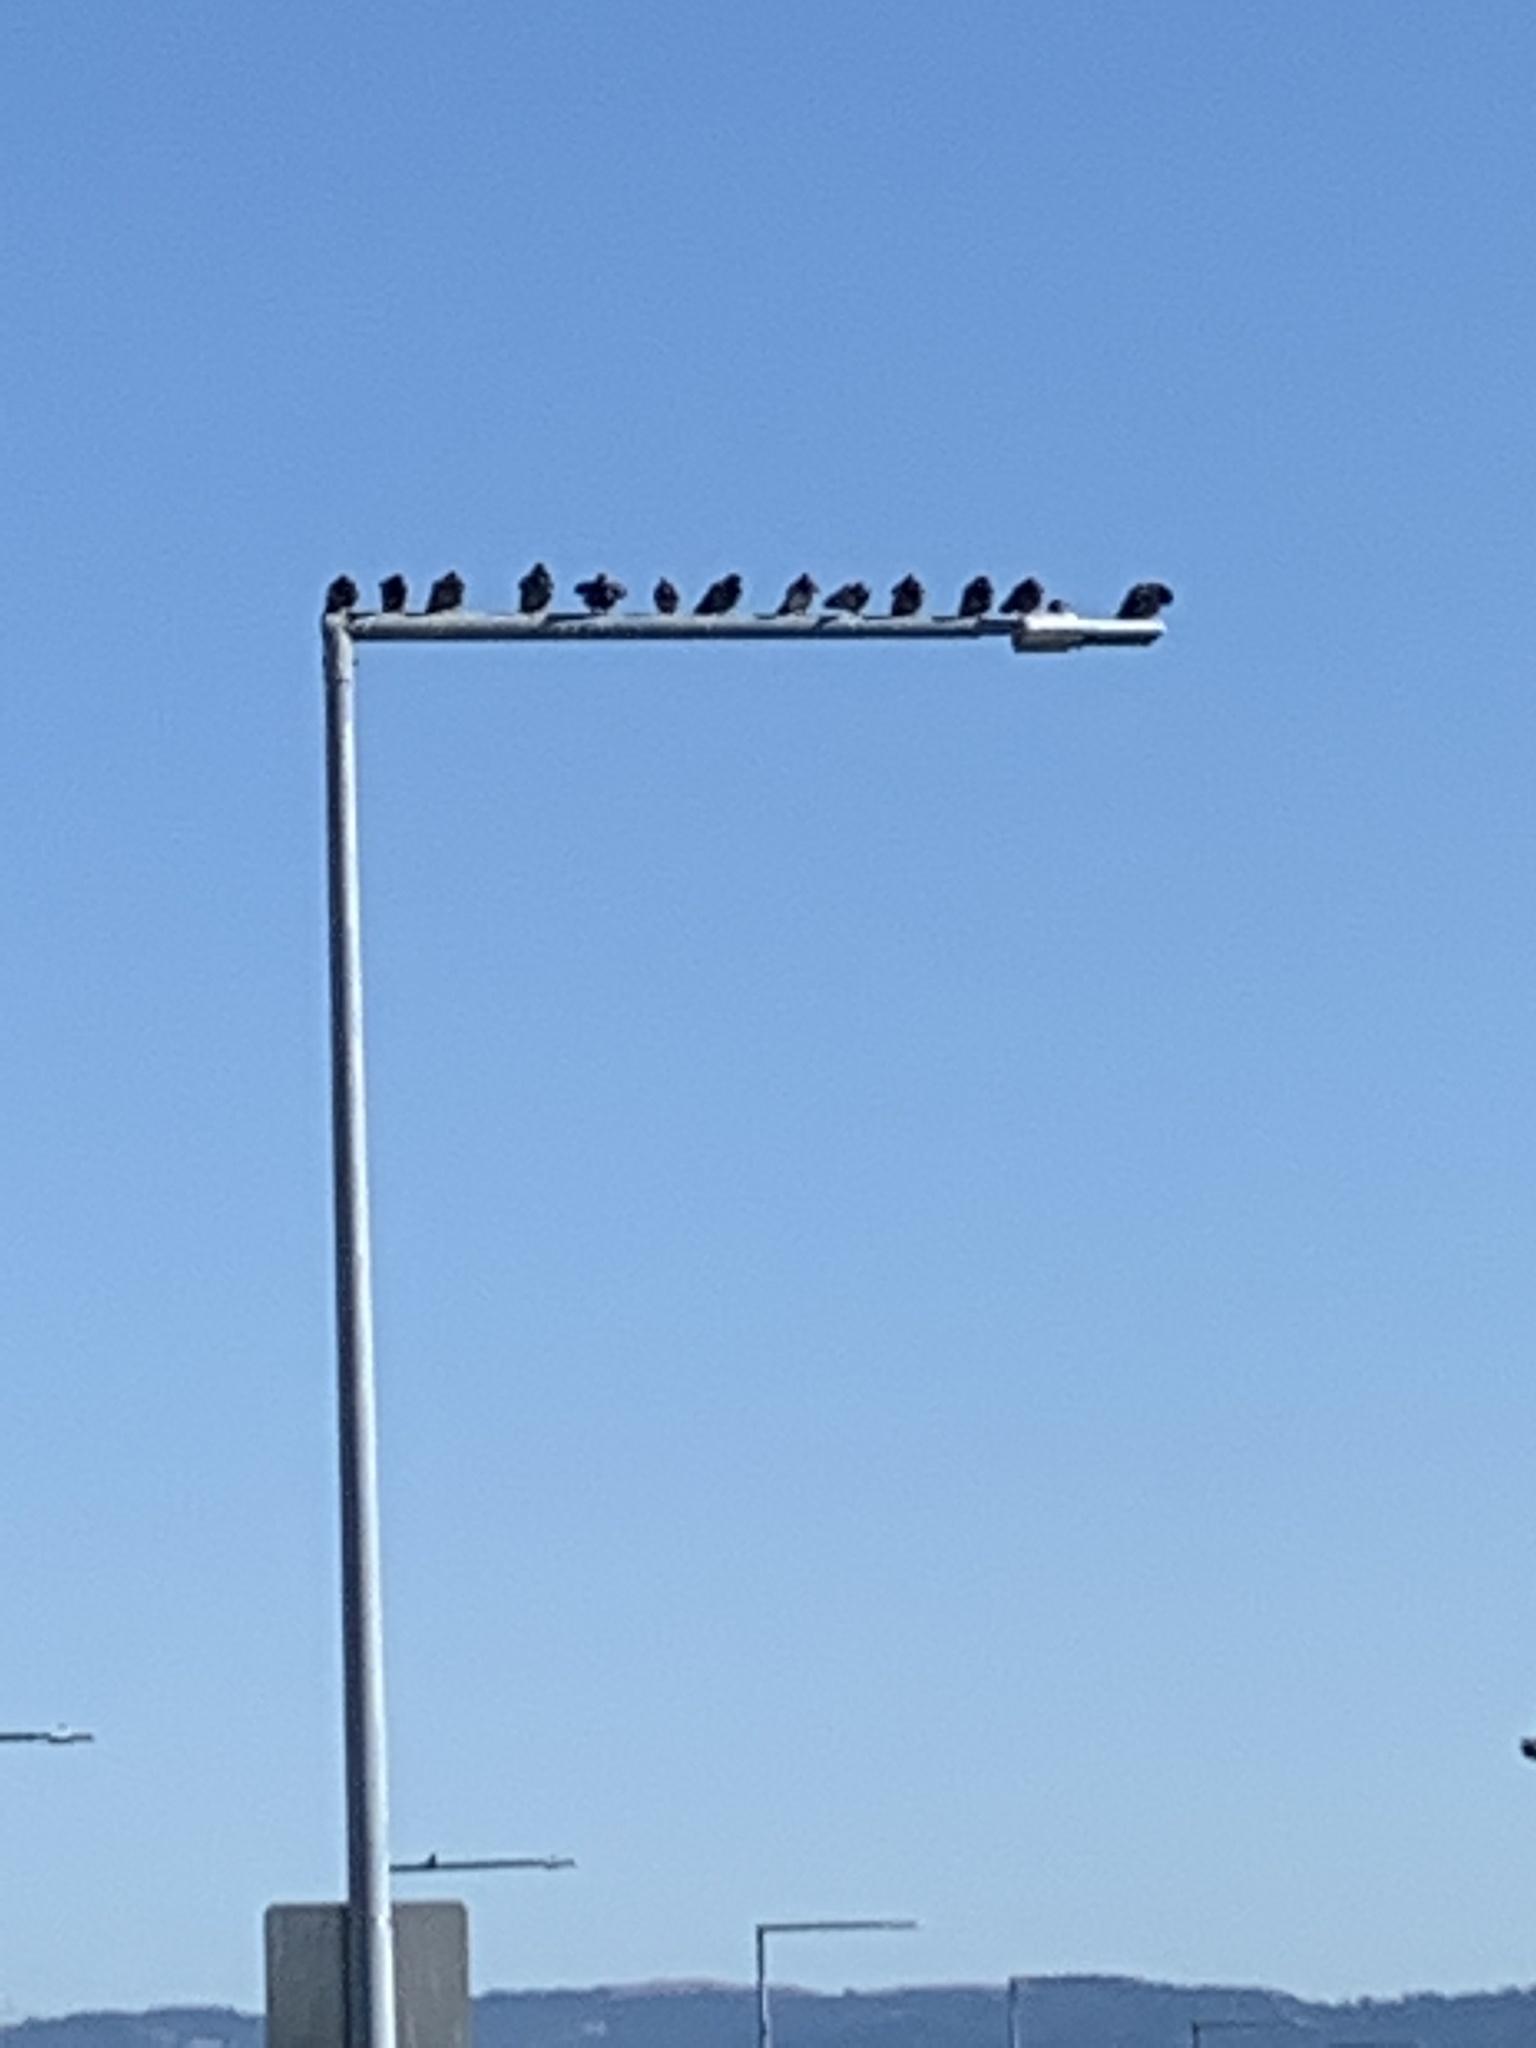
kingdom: Animalia
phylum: Chordata
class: Aves
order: Columbiformes
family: Columbidae
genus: Columba
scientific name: Columba livia
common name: Rock pigeon
